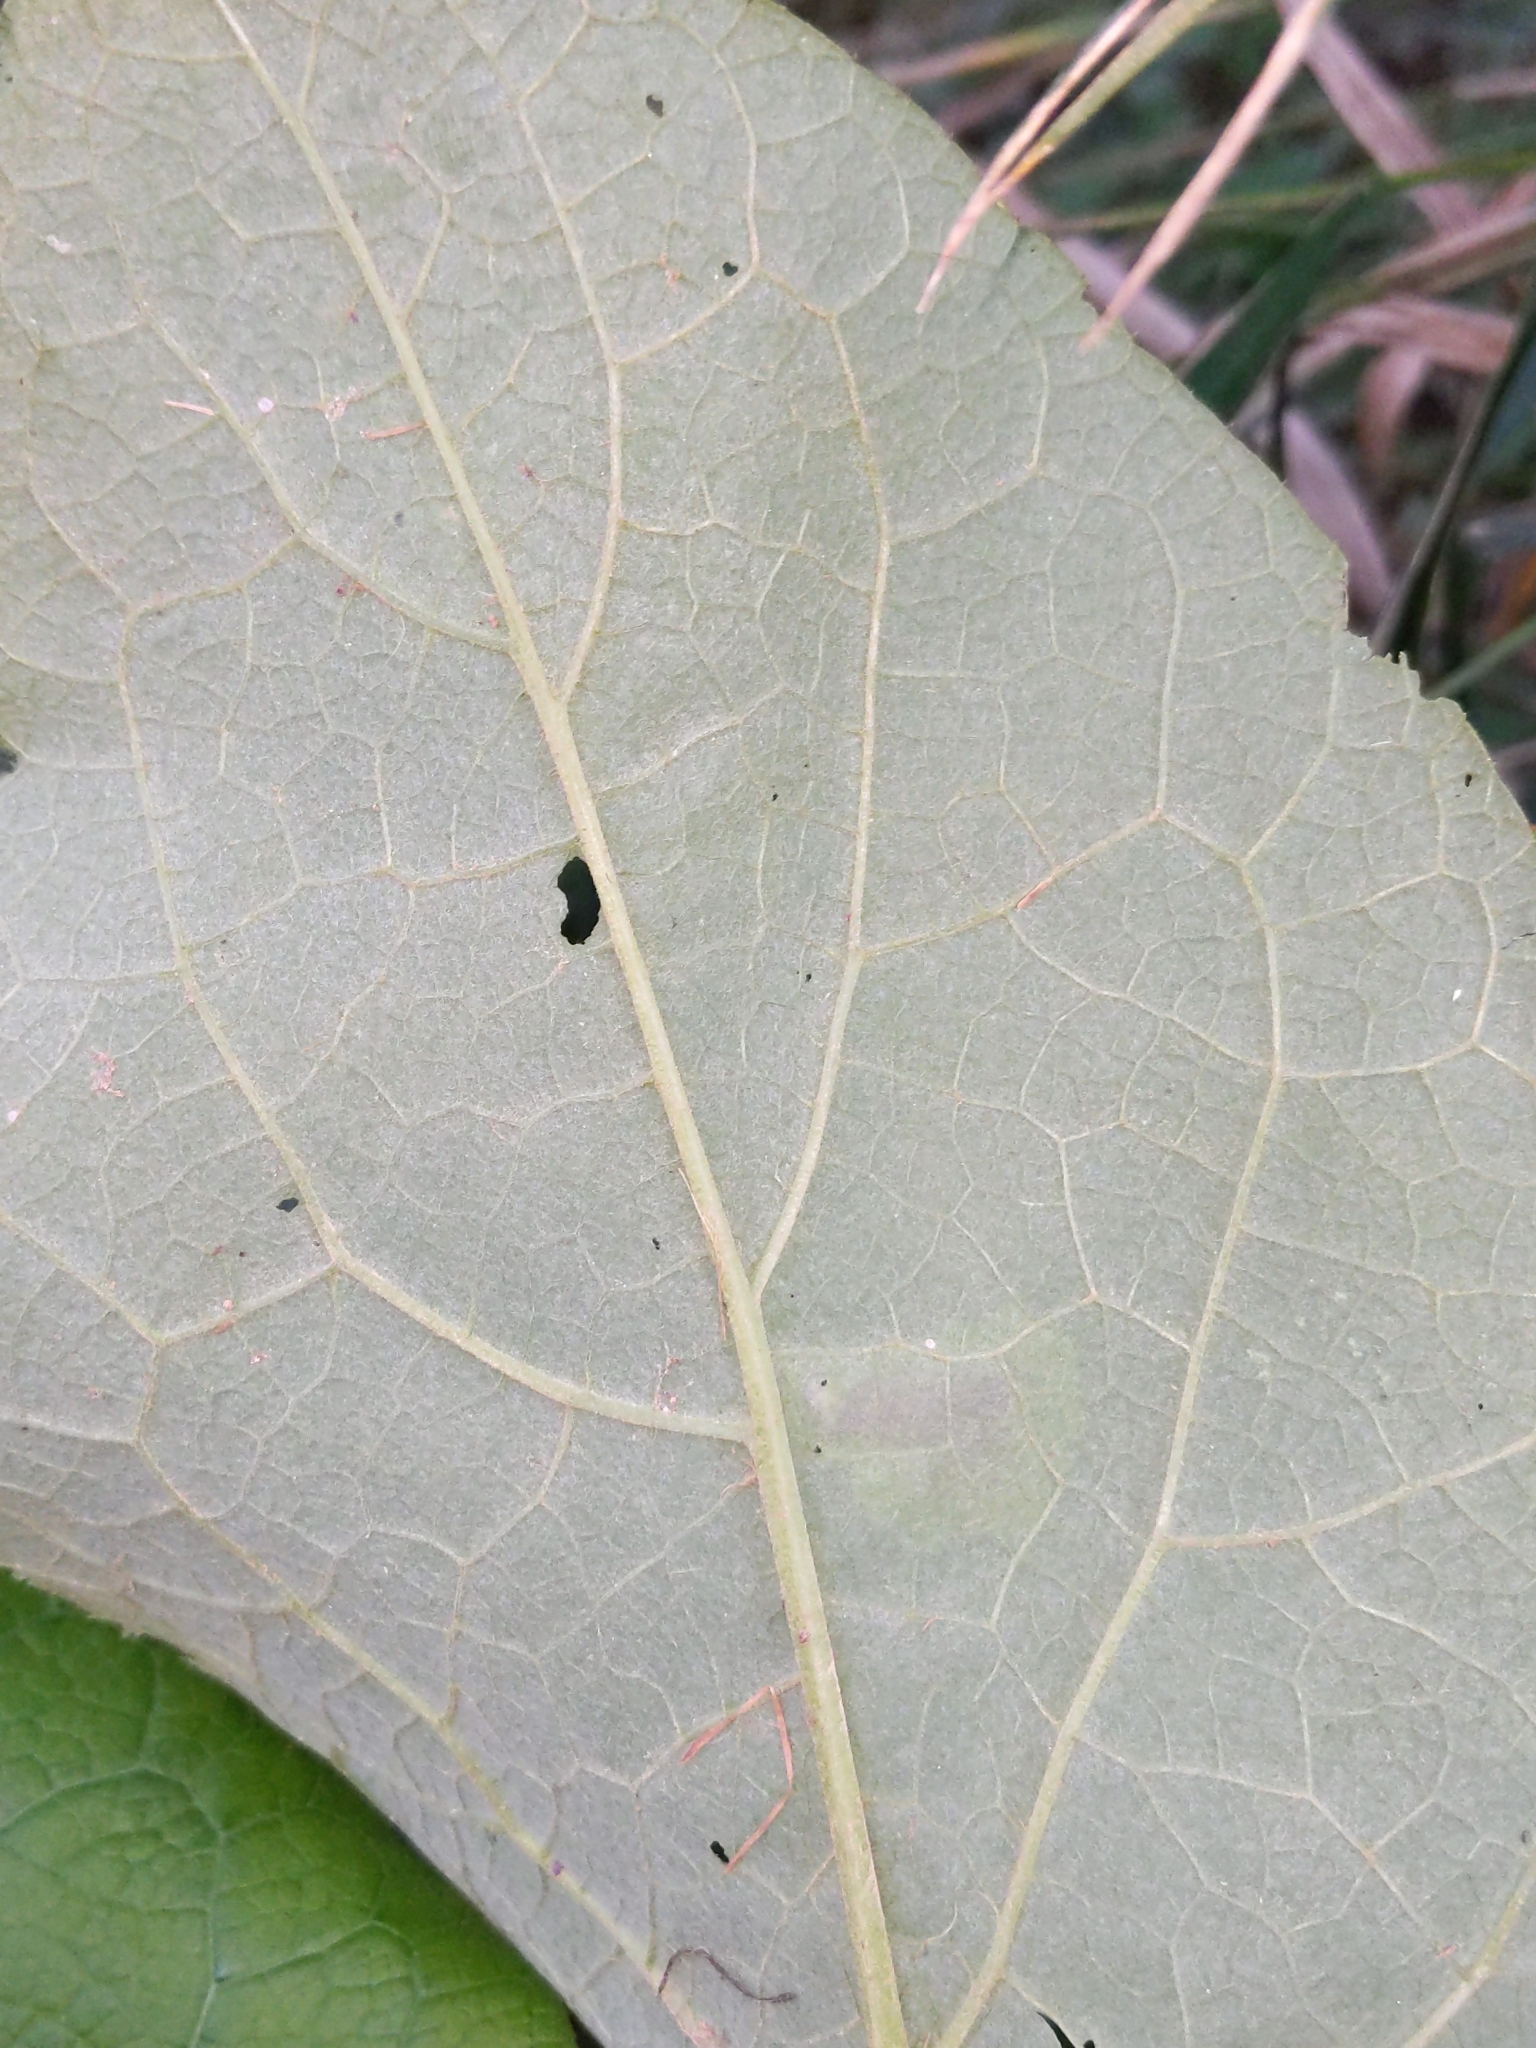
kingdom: Animalia
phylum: Arthropoda
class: Insecta
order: Diptera
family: Agromyzidae
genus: Calycomyza
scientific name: Calycomyza flavinotum
